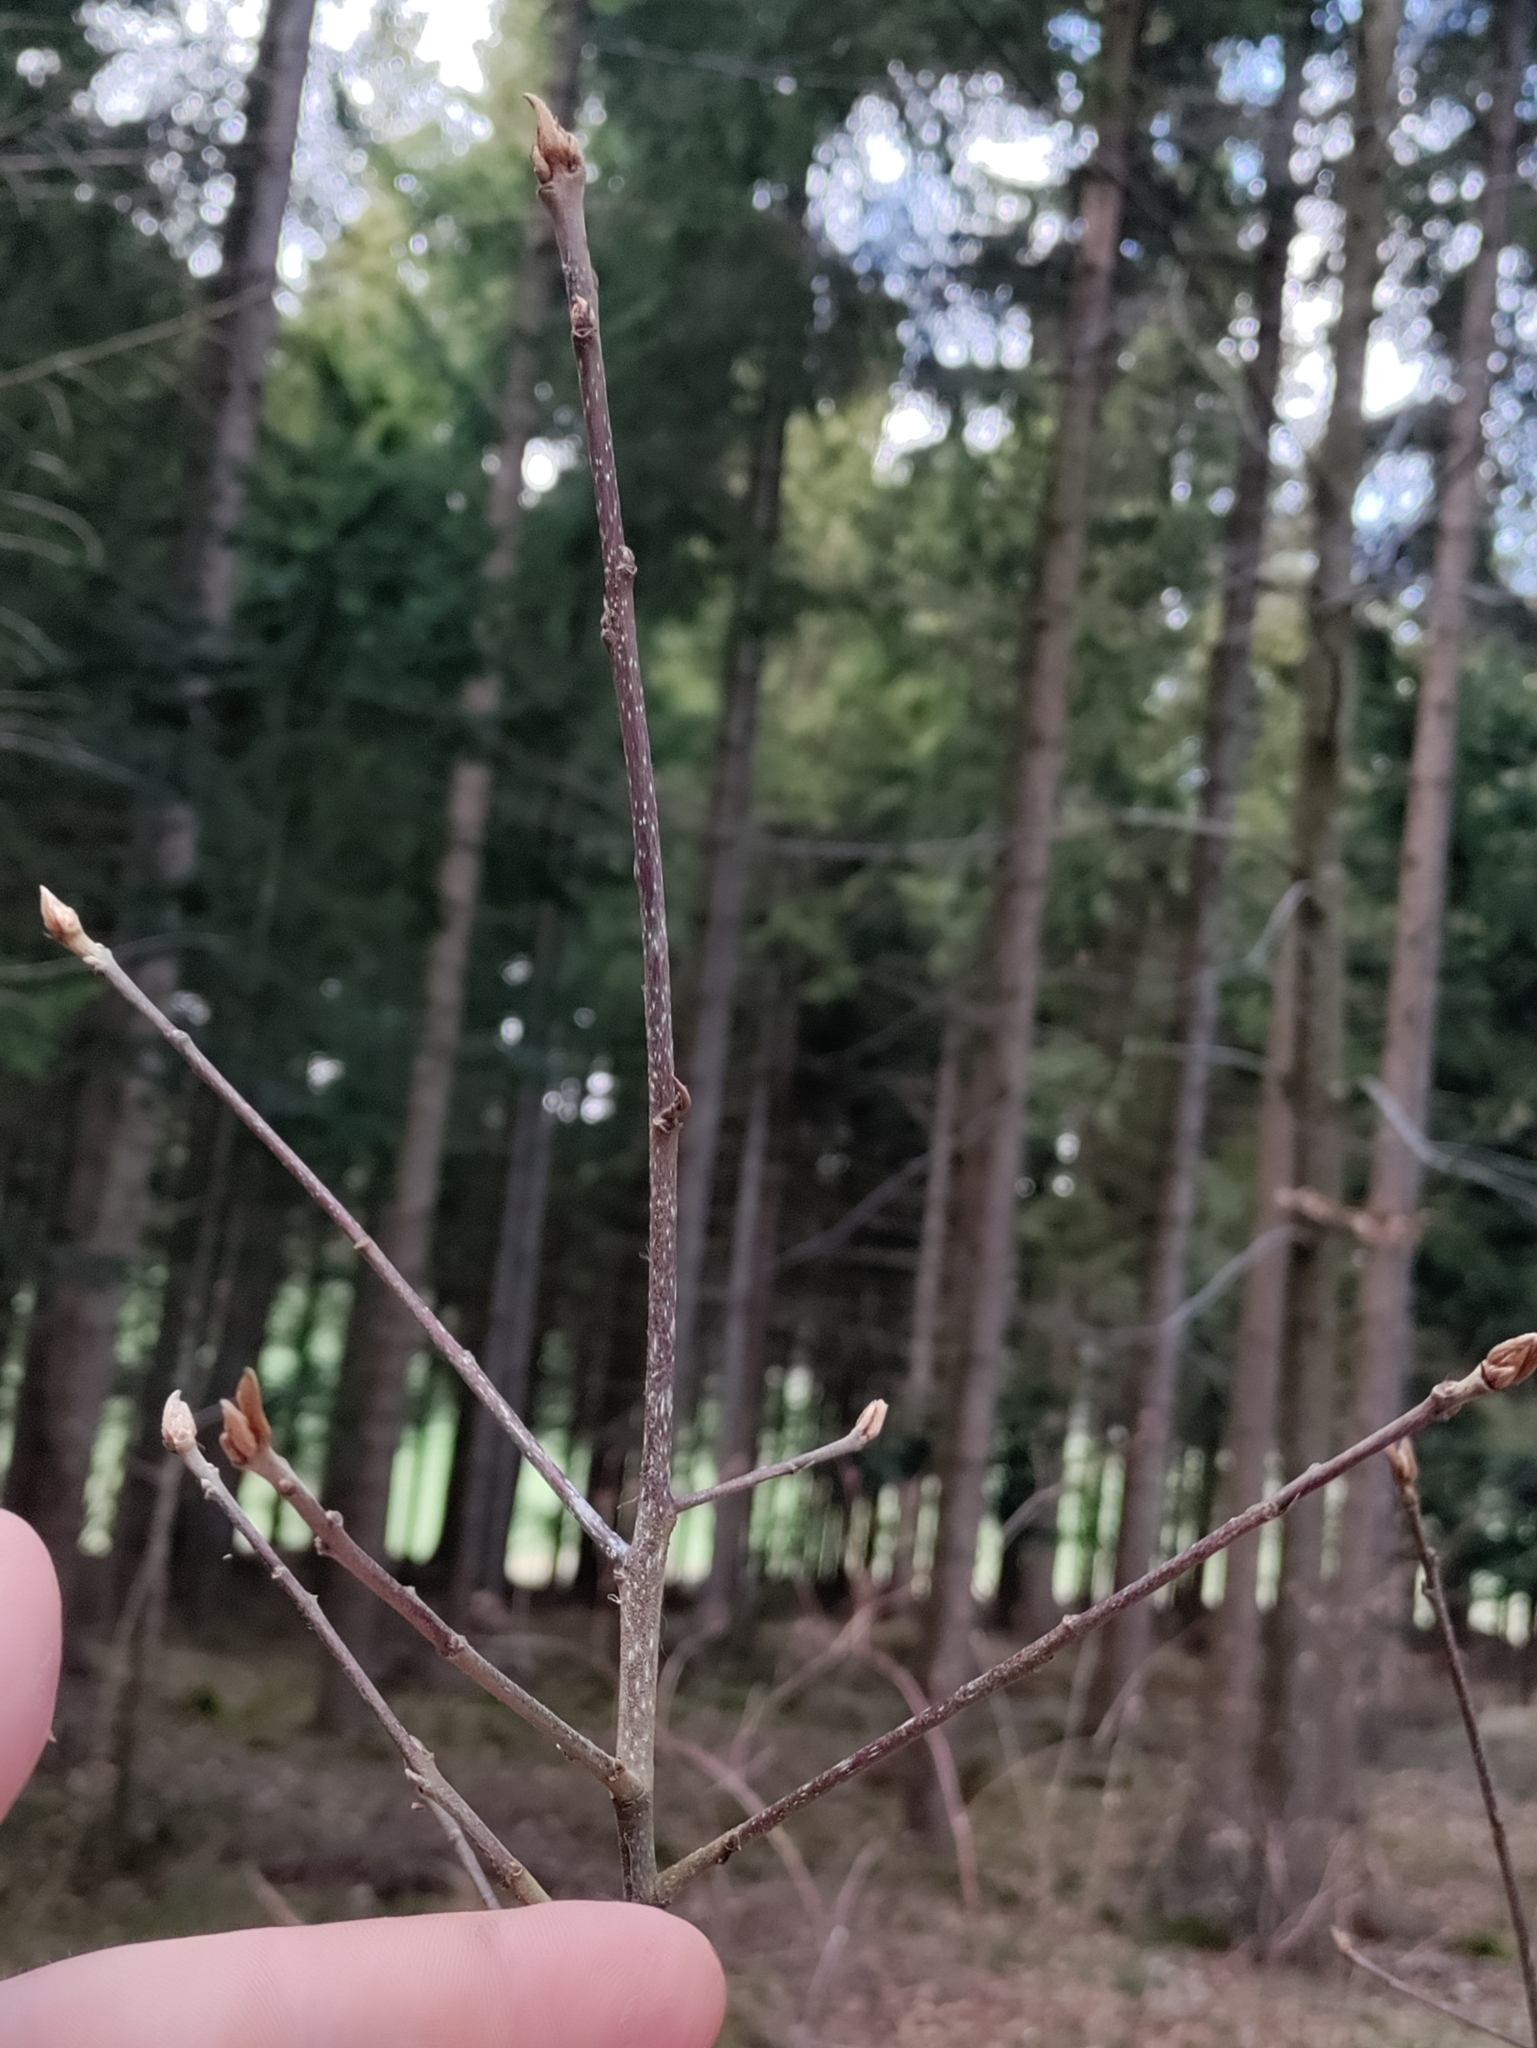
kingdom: Plantae
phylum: Tracheophyta
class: Magnoliopsida
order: Rosales
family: Rhamnaceae
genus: Frangula
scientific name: Frangula alnus
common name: Alder buckthorn
